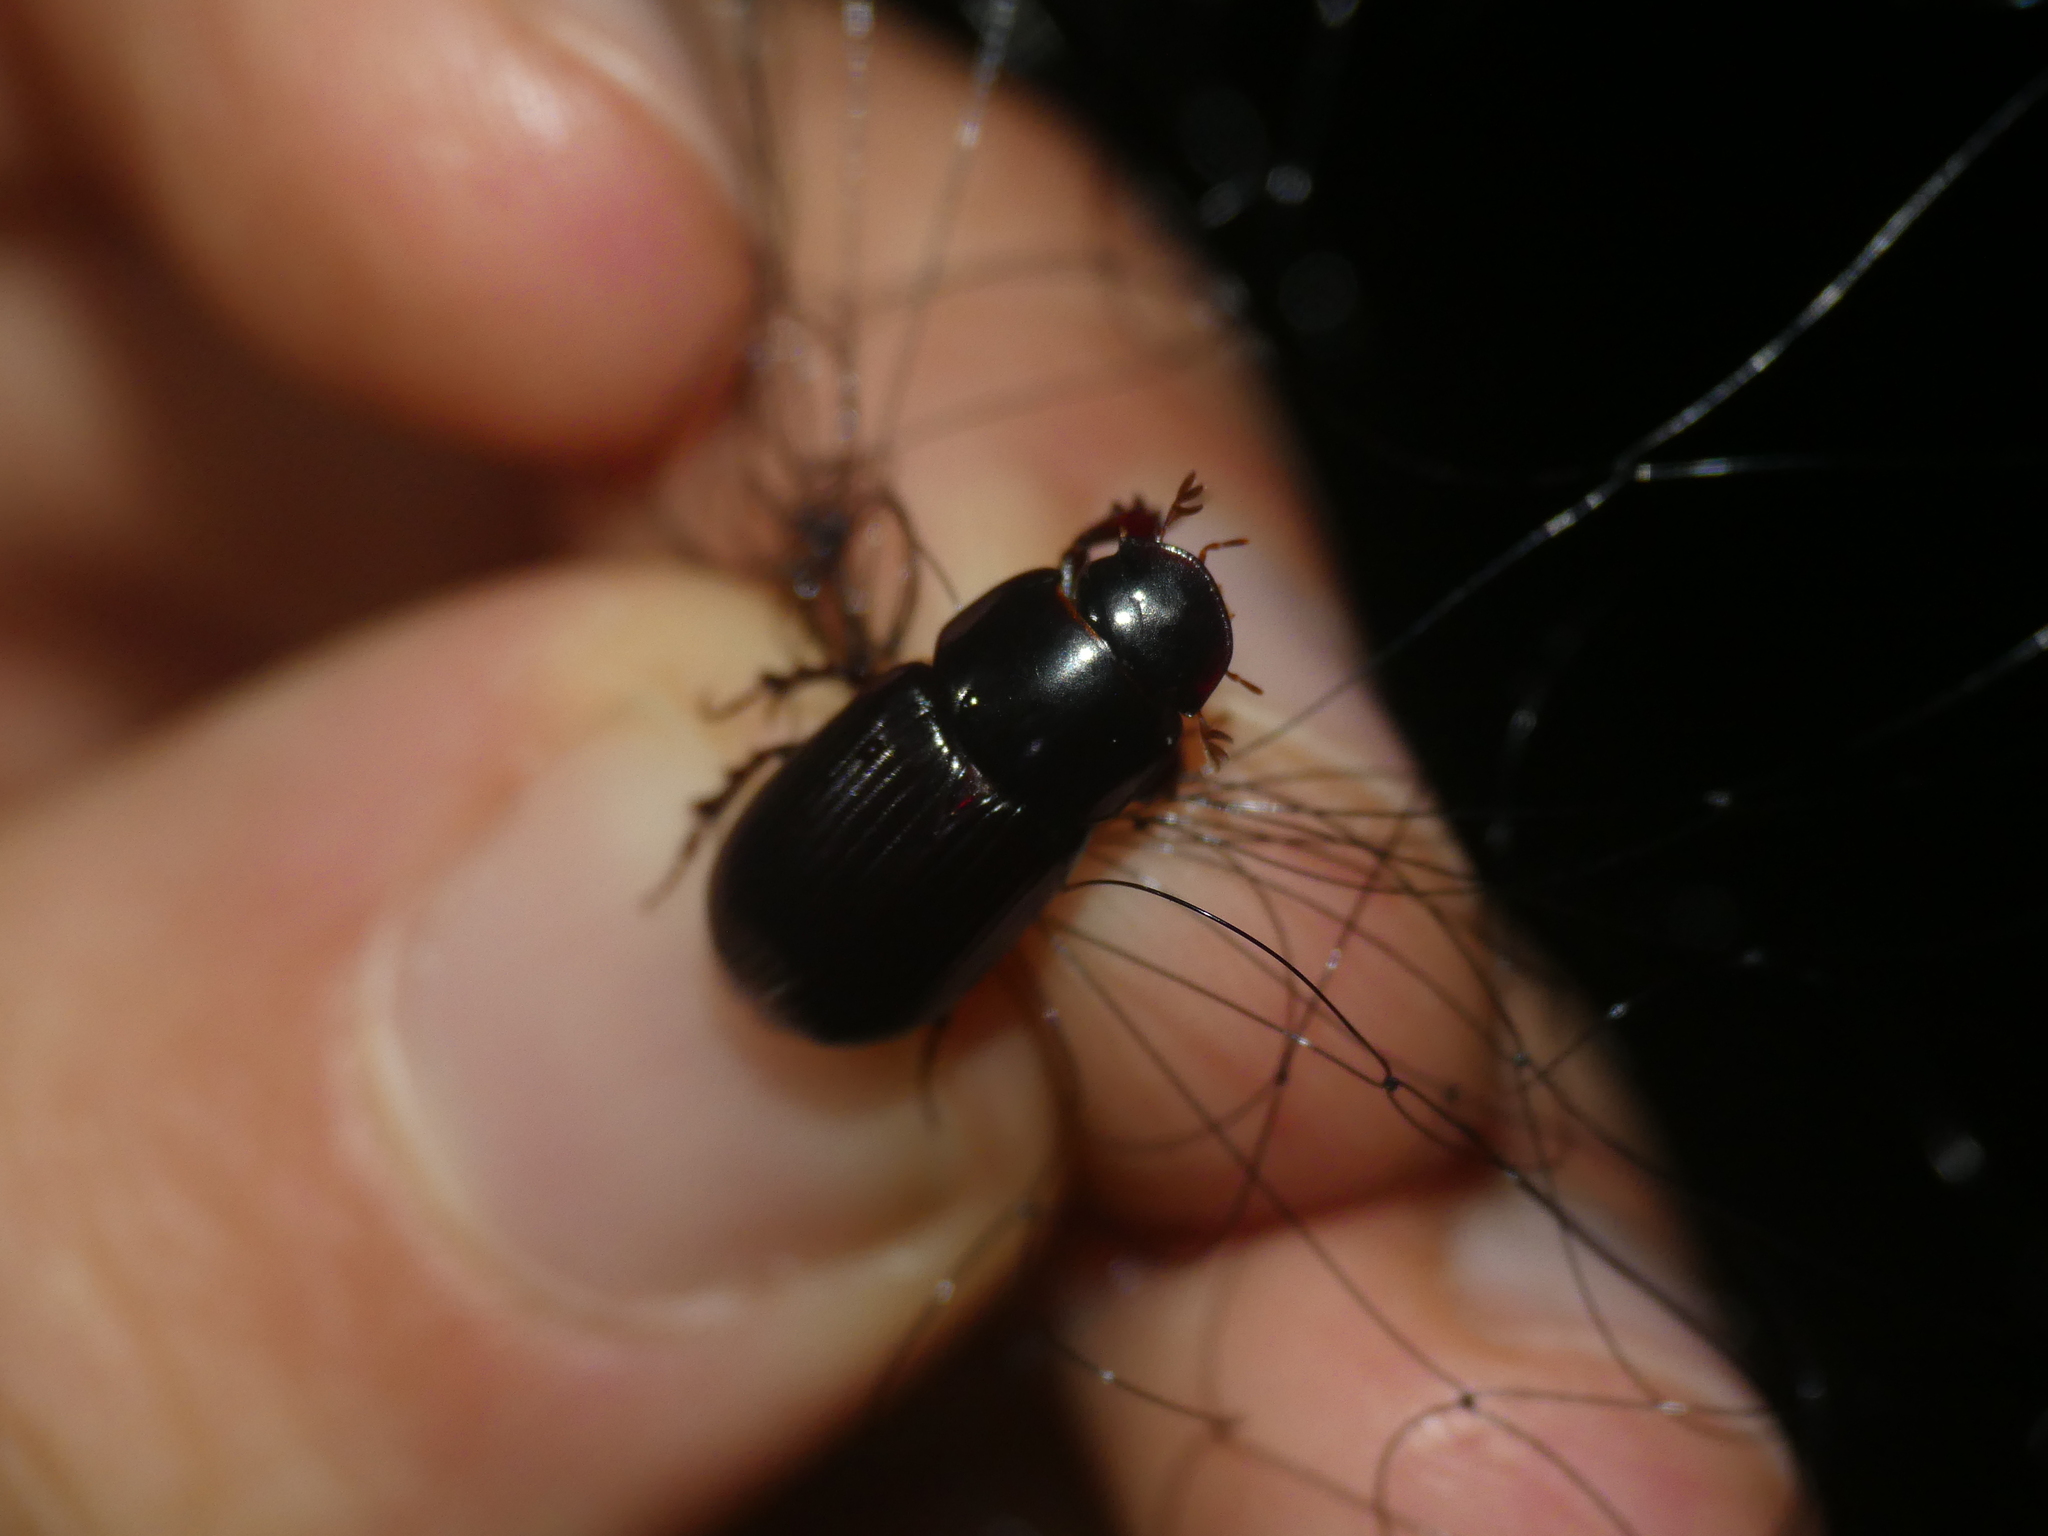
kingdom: Animalia
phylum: Arthropoda
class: Insecta
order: Coleoptera
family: Scarabaeidae
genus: Acrossus
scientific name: Acrossus rufipes
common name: Night-flying dung beetle
